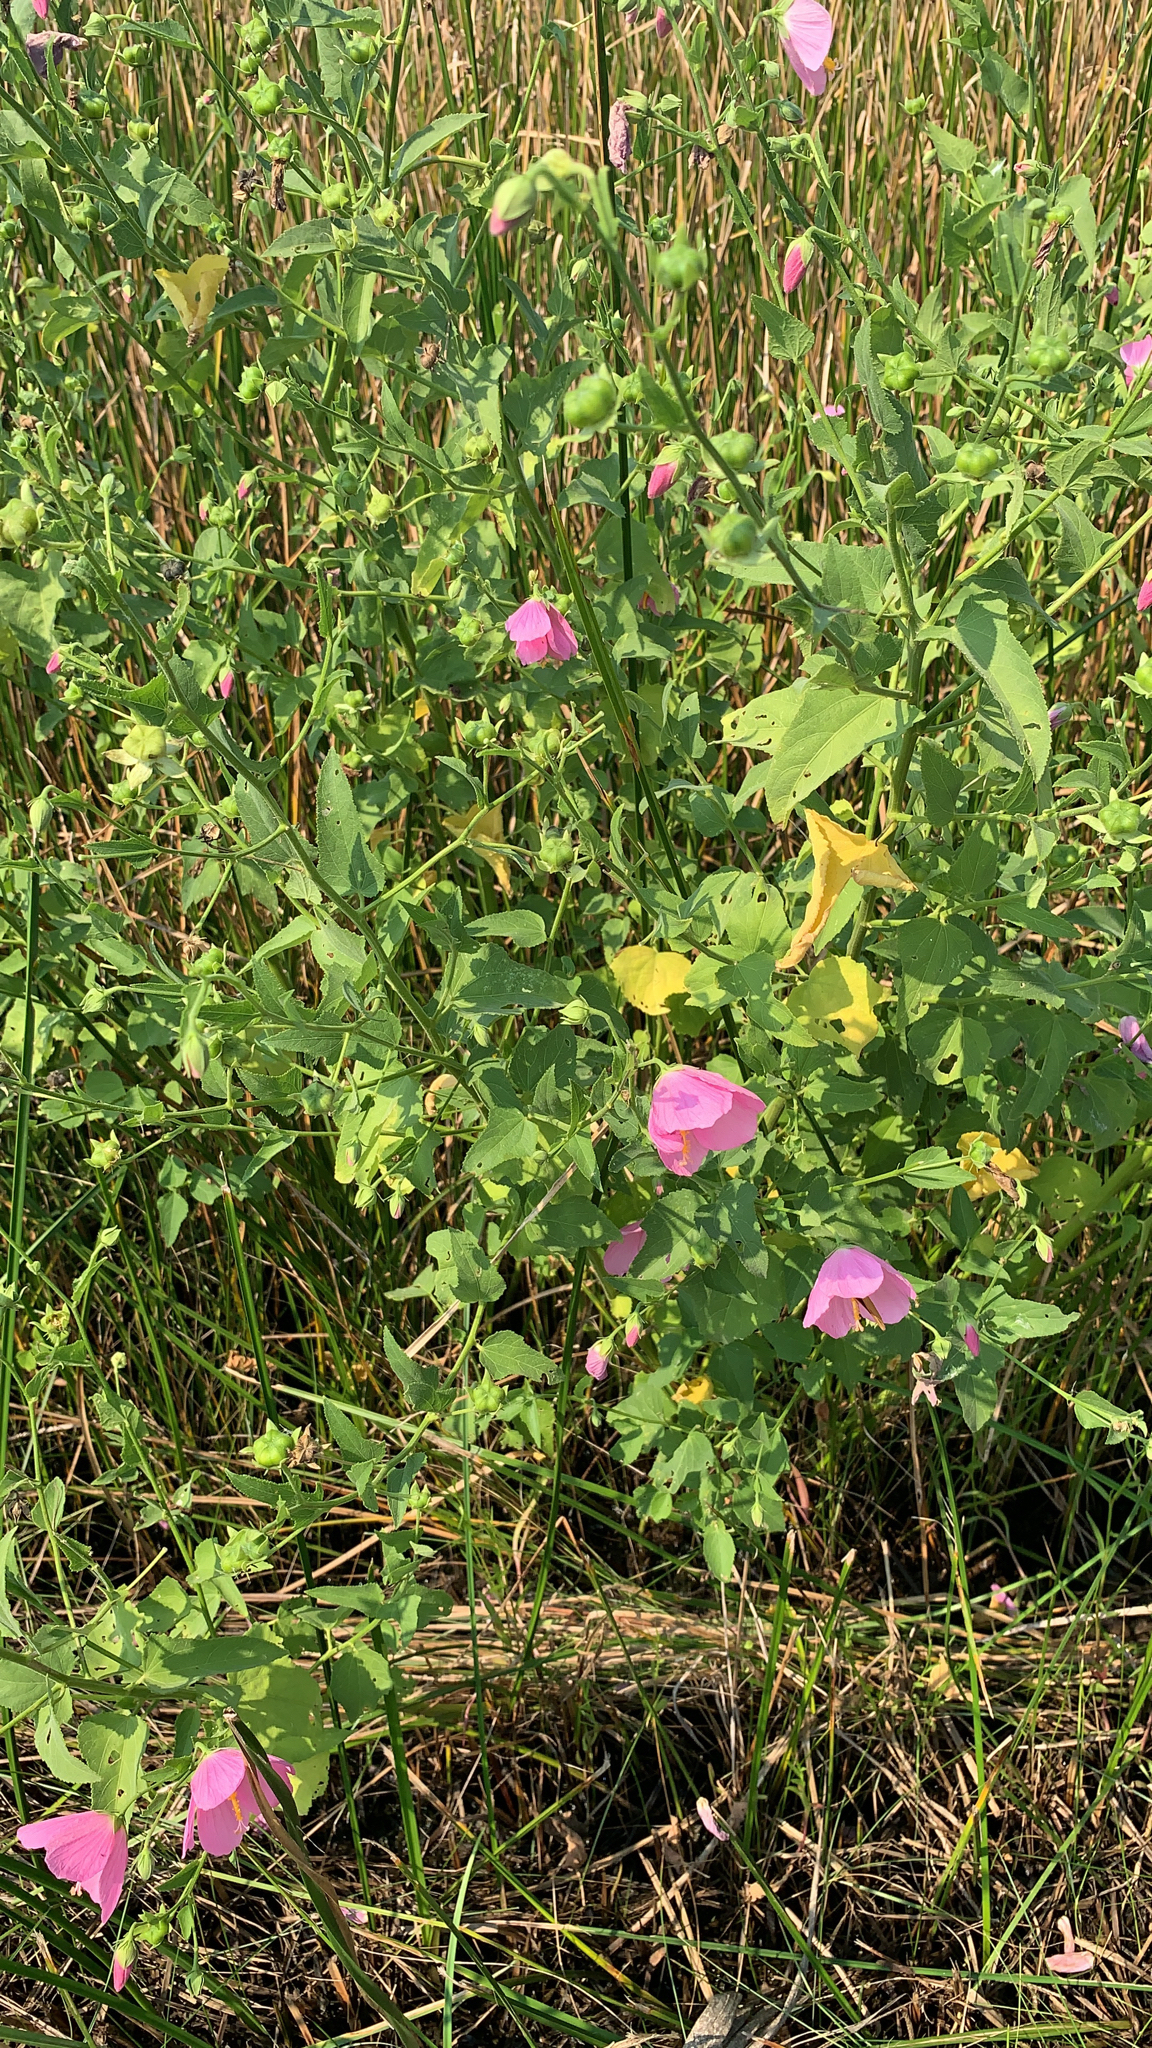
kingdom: Plantae
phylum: Tracheophyta
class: Magnoliopsida
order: Malvales
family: Malvaceae
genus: Kosteletzkya
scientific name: Kosteletzkya pentacarpos
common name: Virginia saltmarsh mallow
